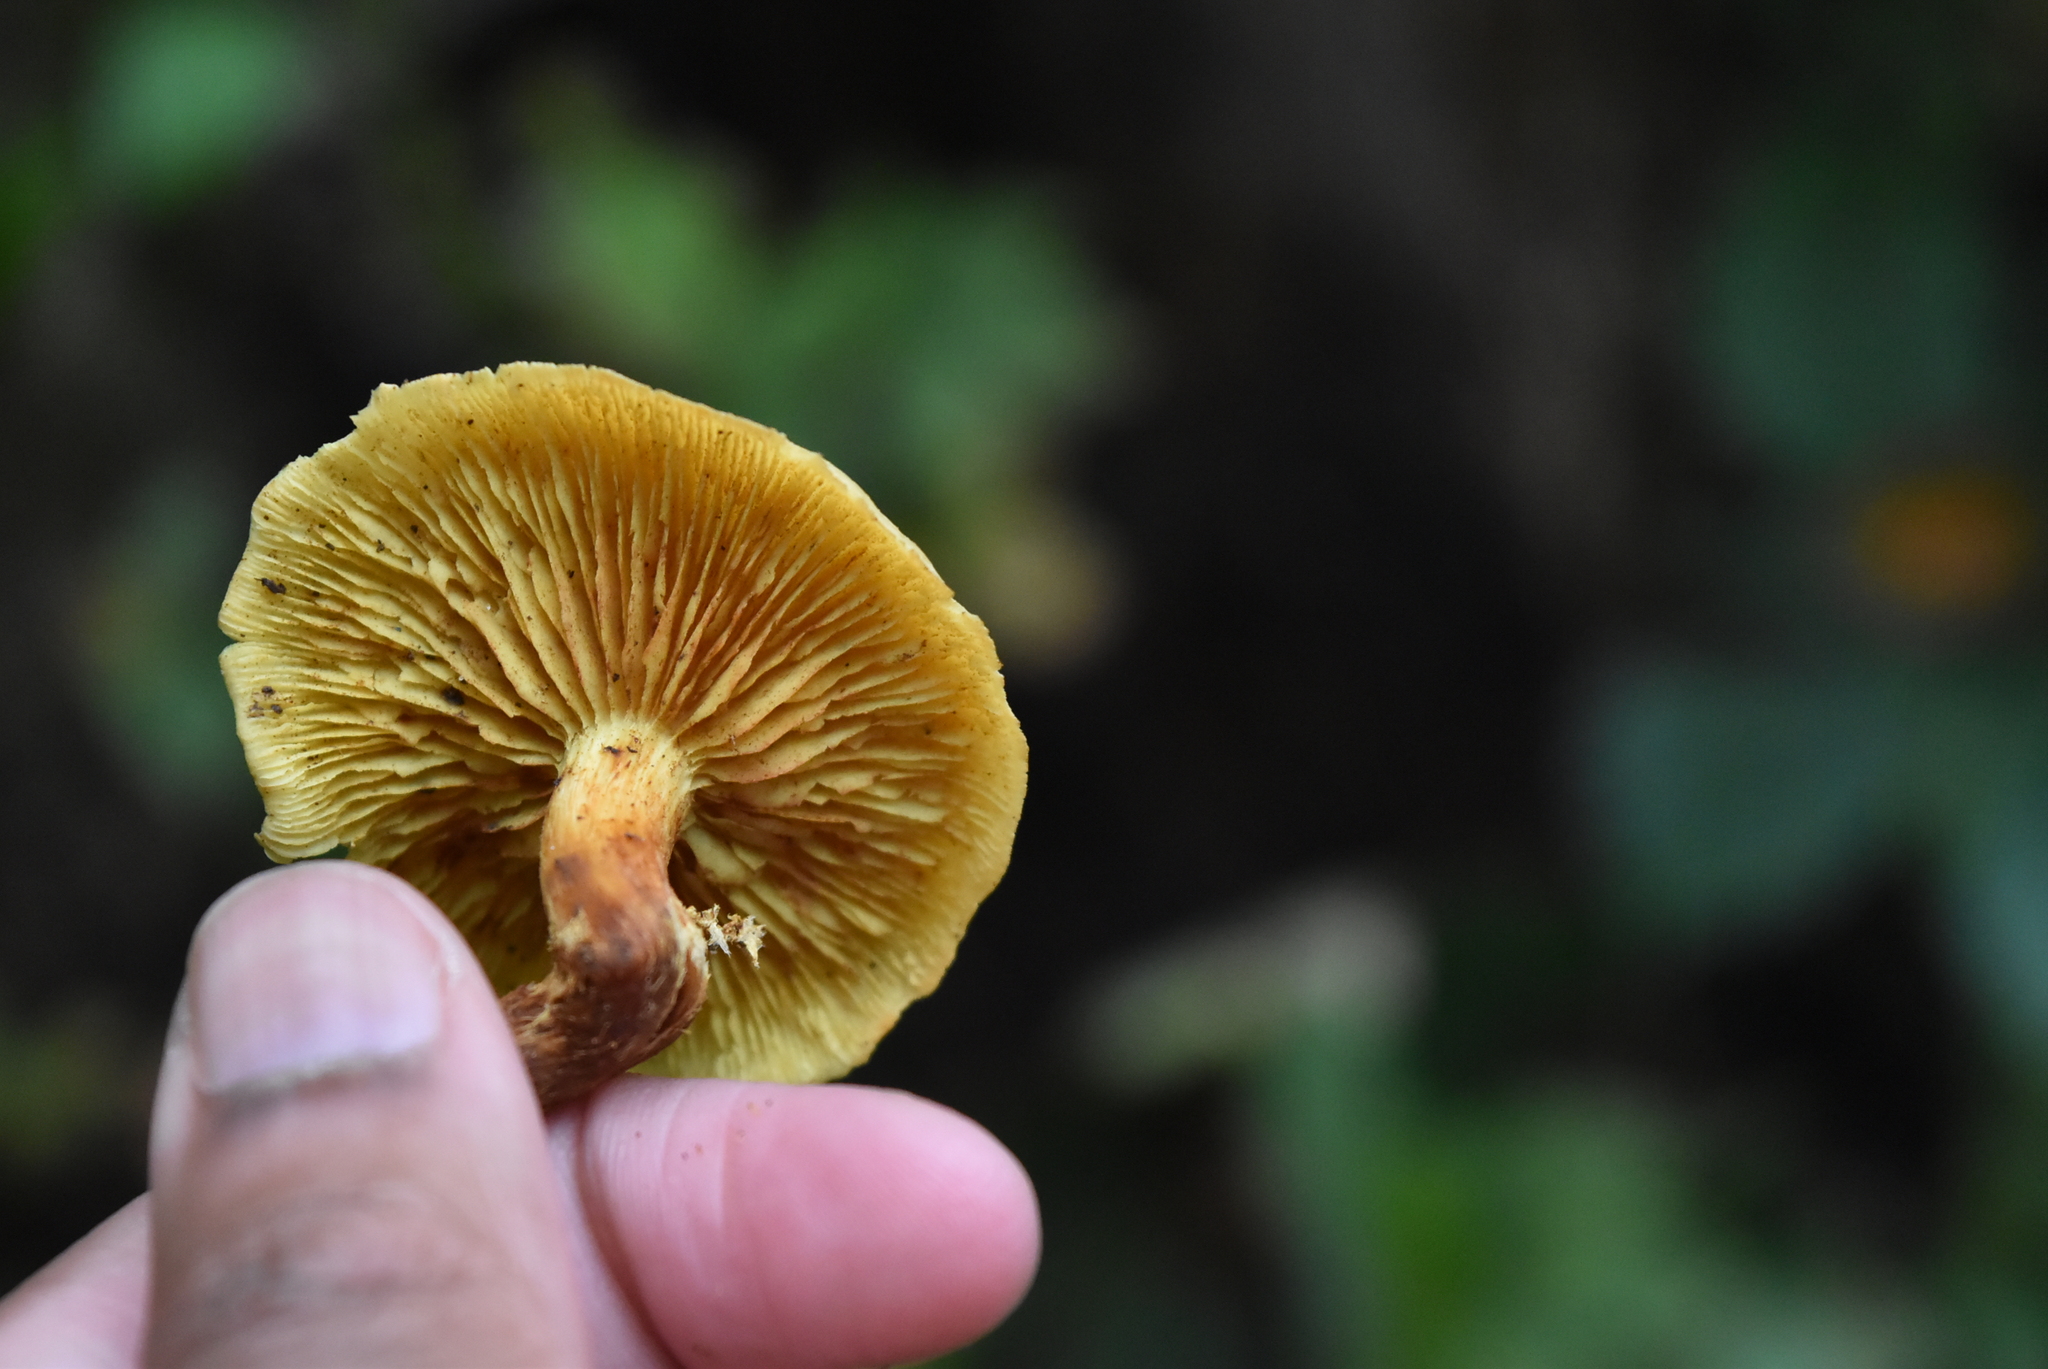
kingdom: Fungi
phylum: Basidiomycota
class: Agaricomycetes
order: Agaricales
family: Hymenogastraceae
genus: Flammula
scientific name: Flammula alnicola
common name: Alder scalycap
